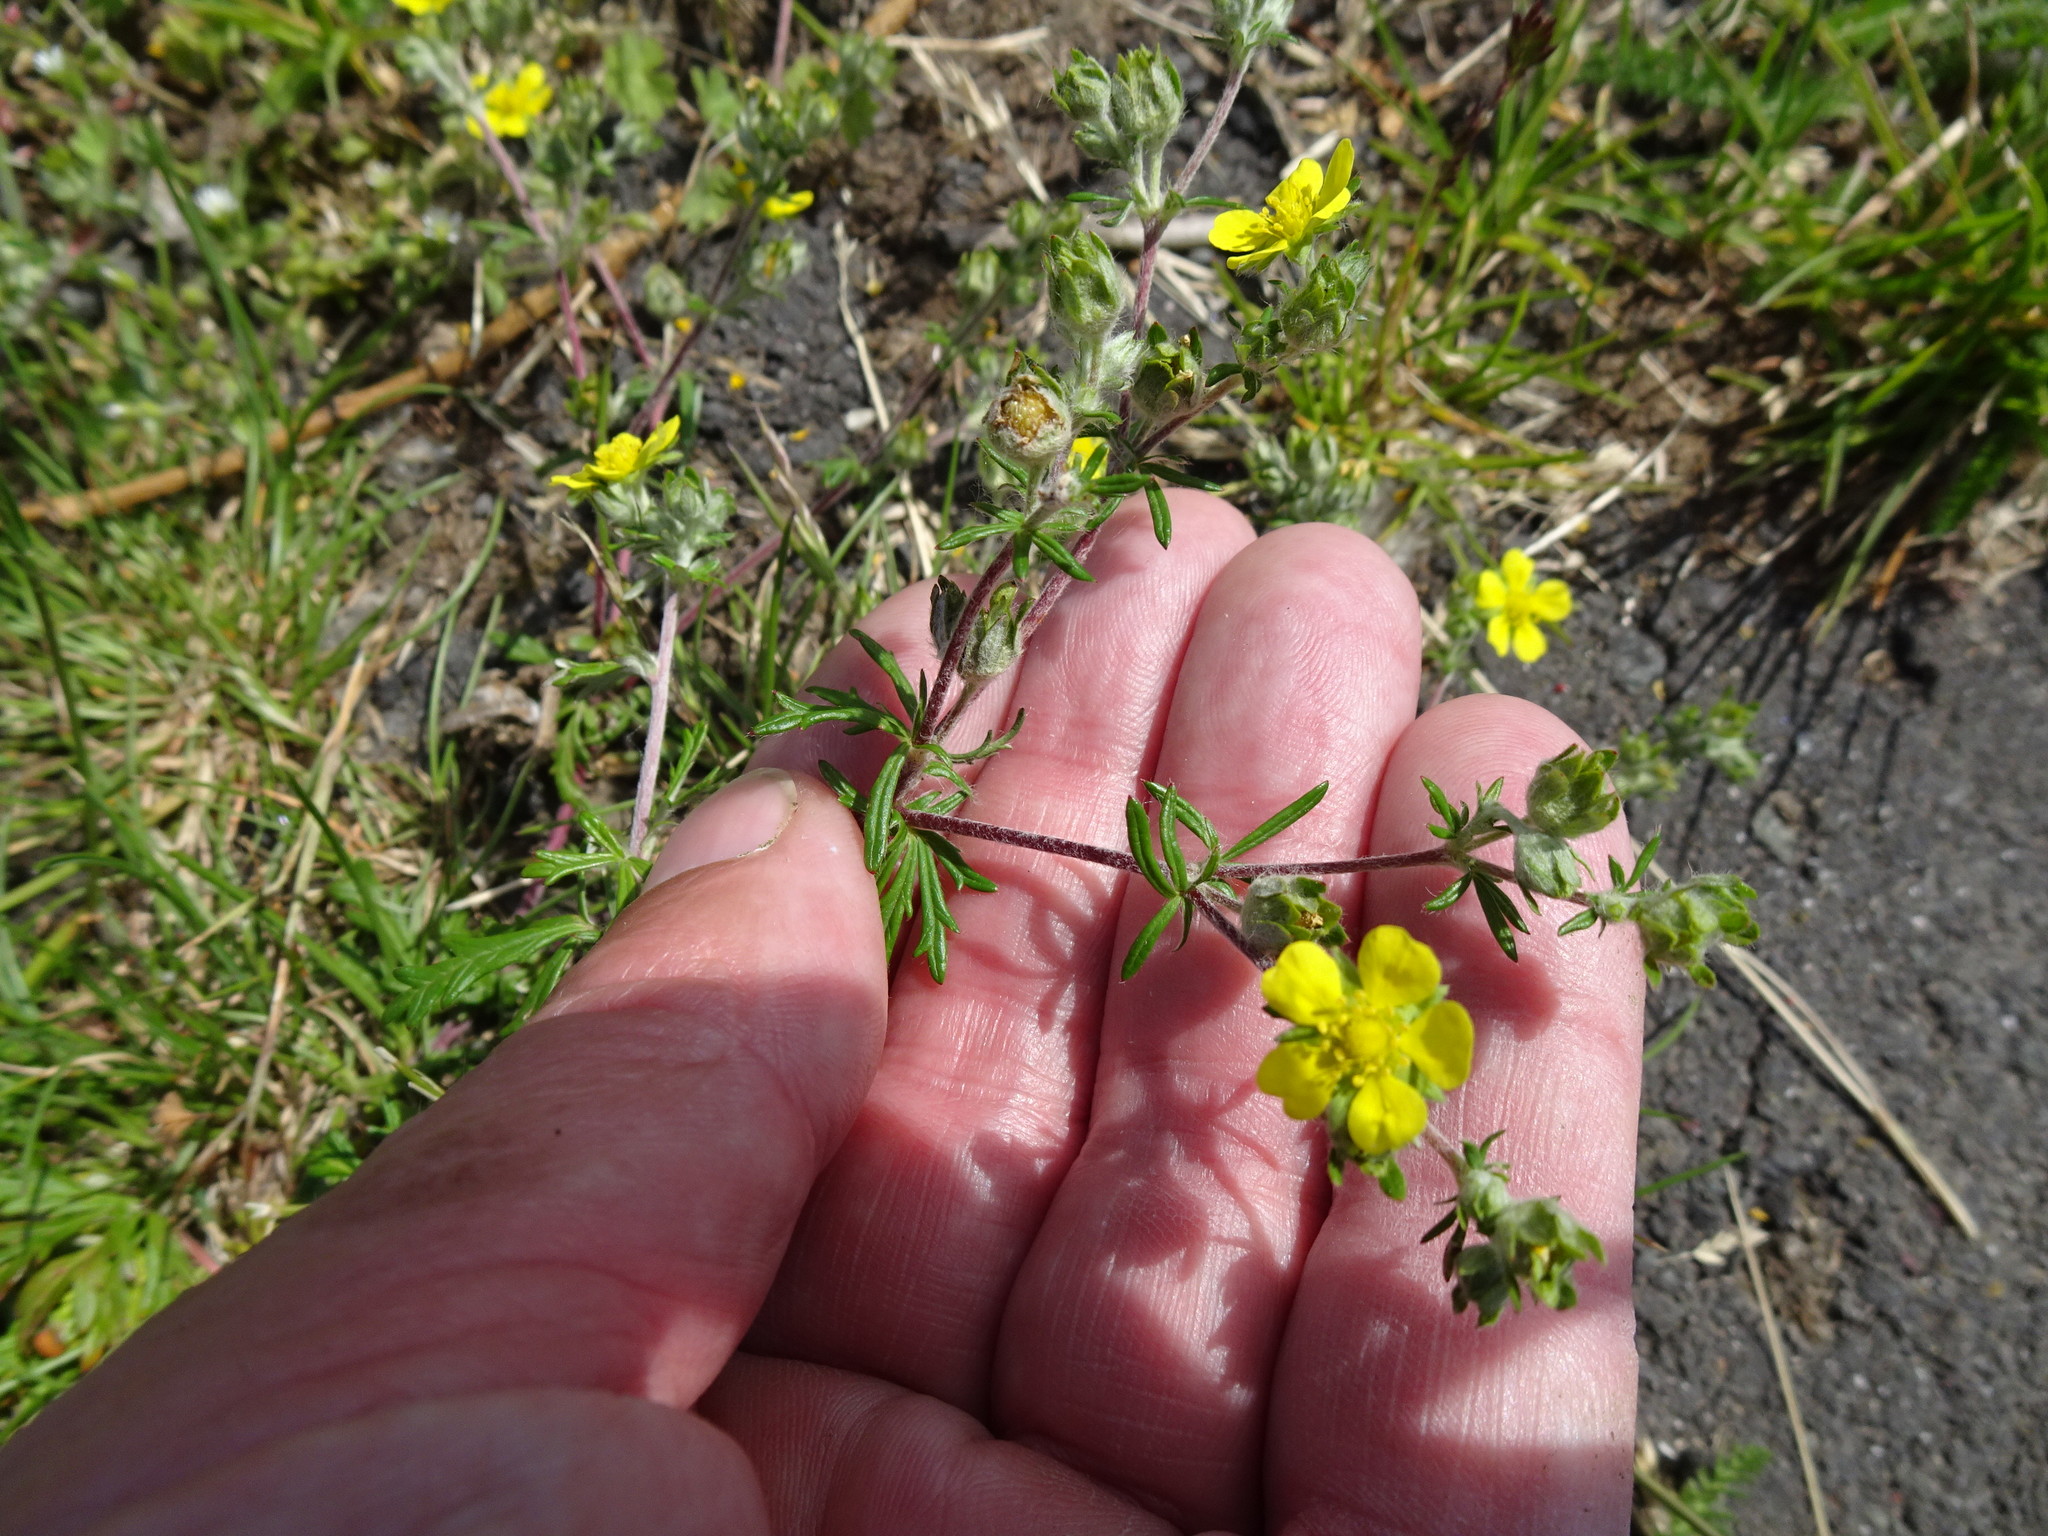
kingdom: Plantae
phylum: Tracheophyta
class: Magnoliopsida
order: Rosales
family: Rosaceae
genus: Potentilla
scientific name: Potentilla argentea
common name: Hoary cinquefoil
